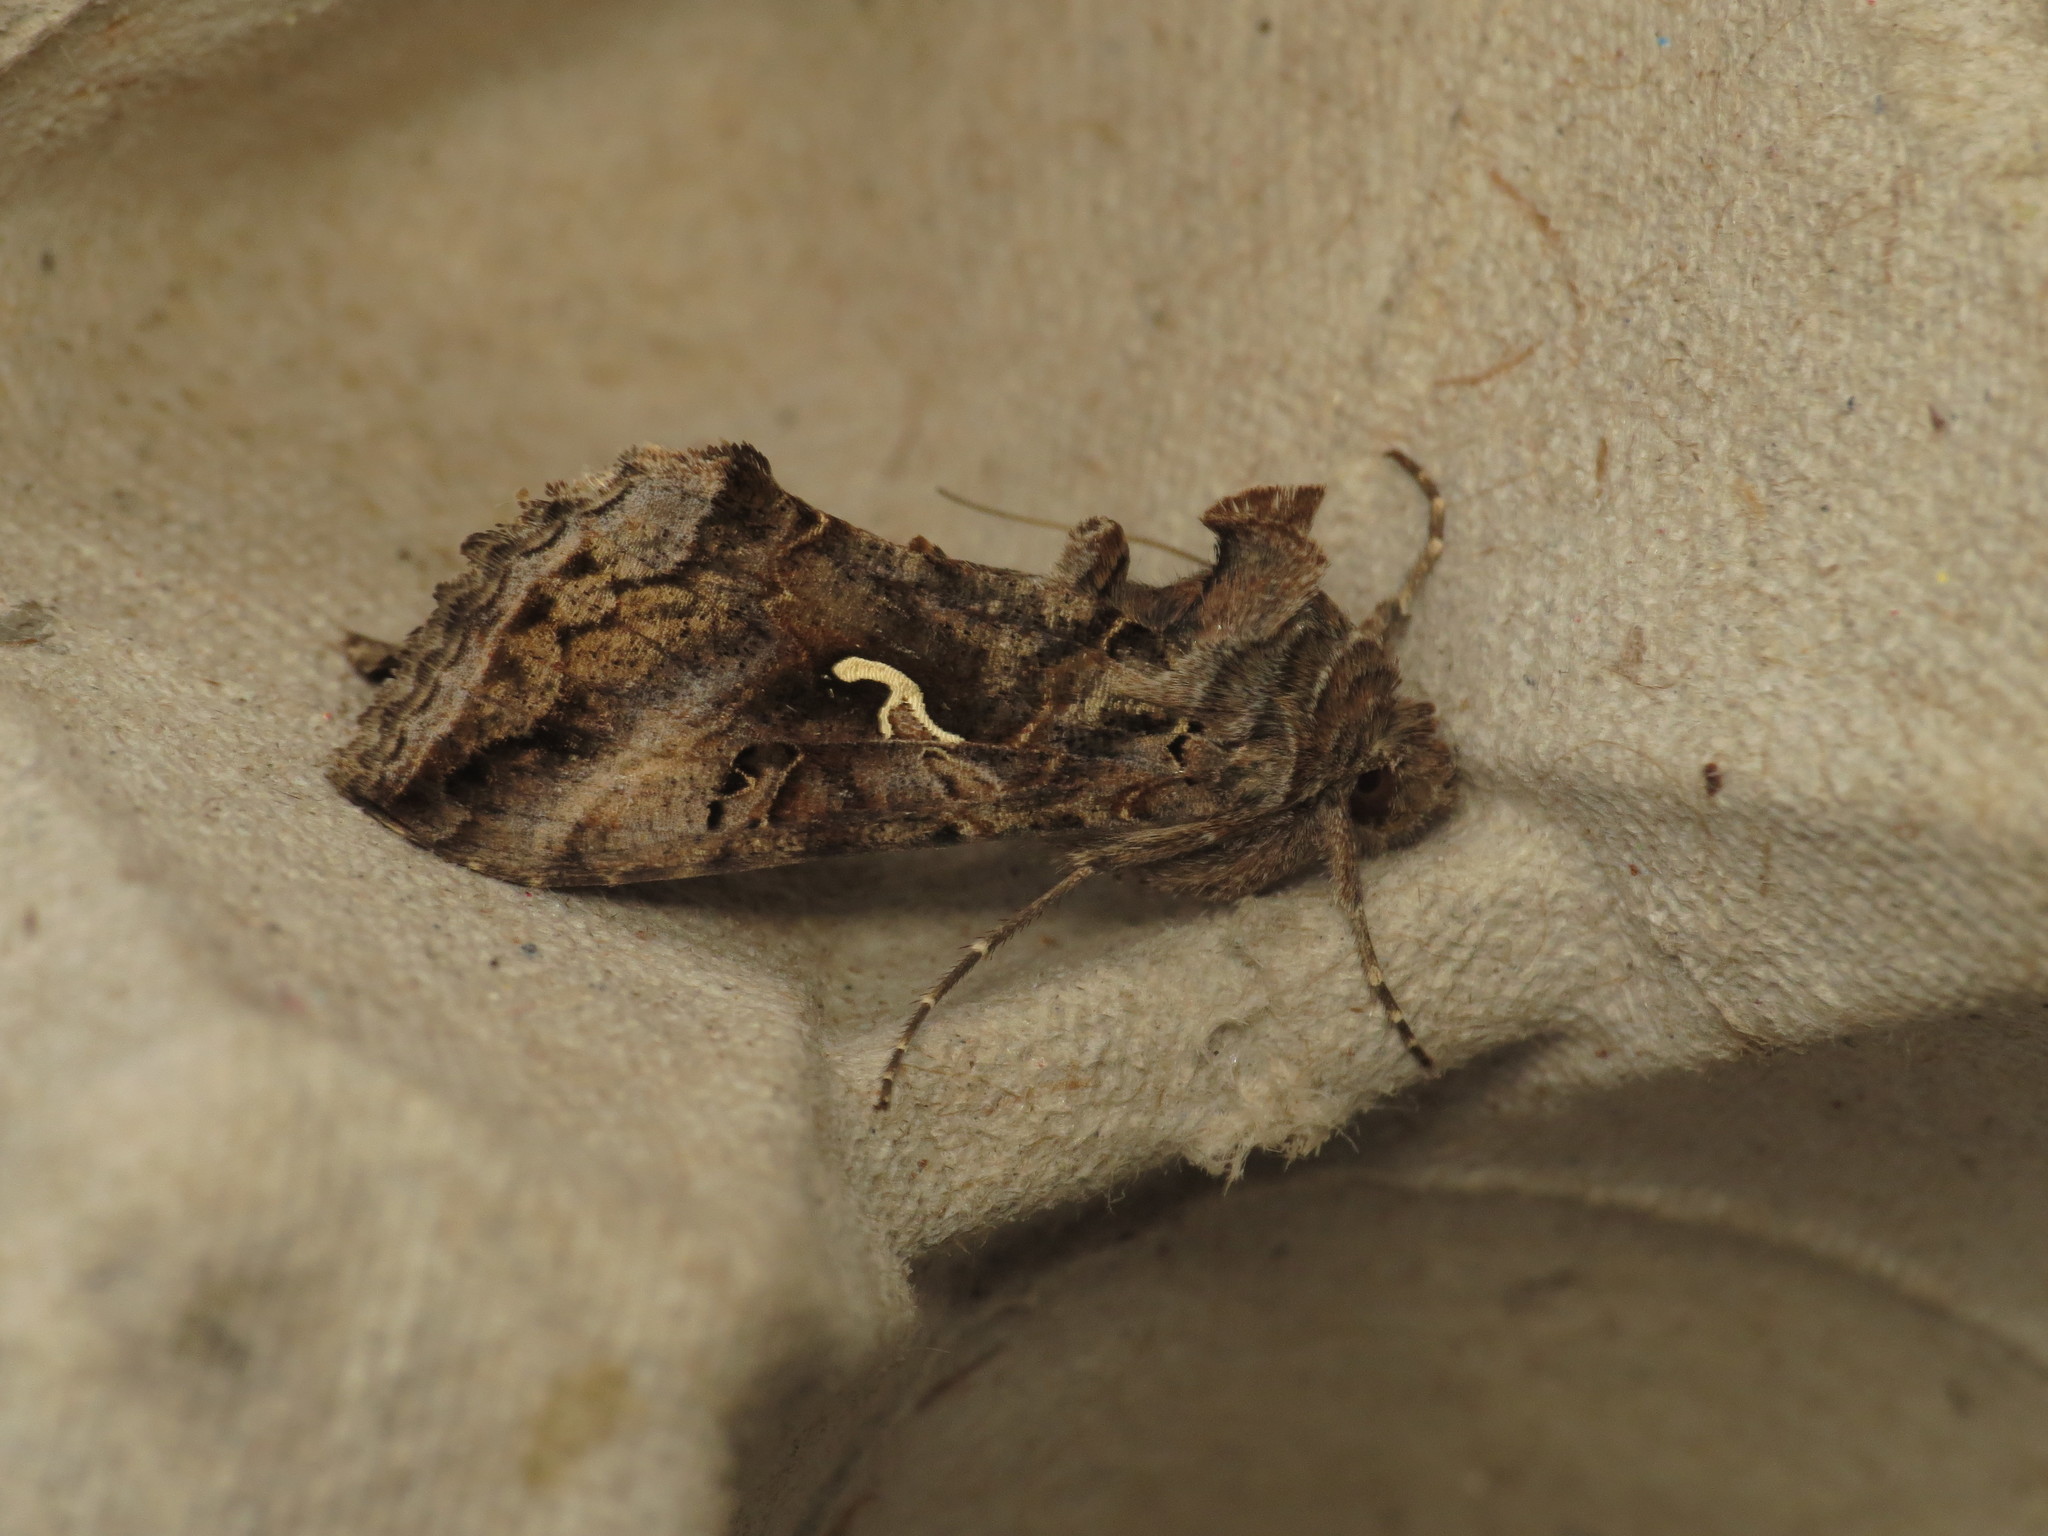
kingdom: Animalia
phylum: Arthropoda
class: Insecta
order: Lepidoptera
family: Noctuidae
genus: Autographa
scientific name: Autographa gamma
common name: Silver y
